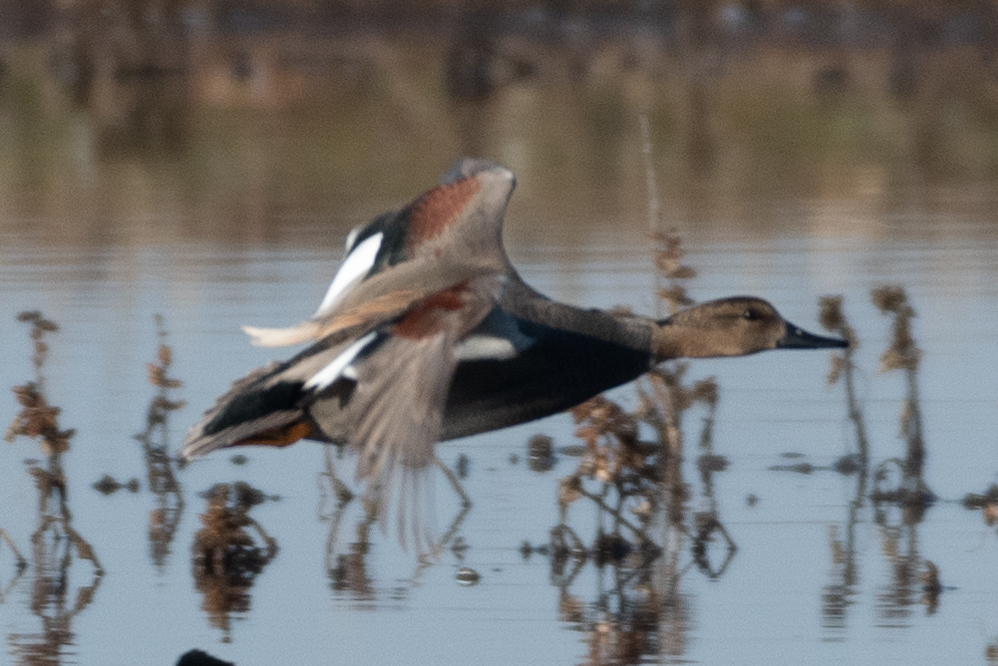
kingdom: Animalia
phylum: Chordata
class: Aves
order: Anseriformes
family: Anatidae
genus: Mareca
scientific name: Mareca strepera
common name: Gadwall
